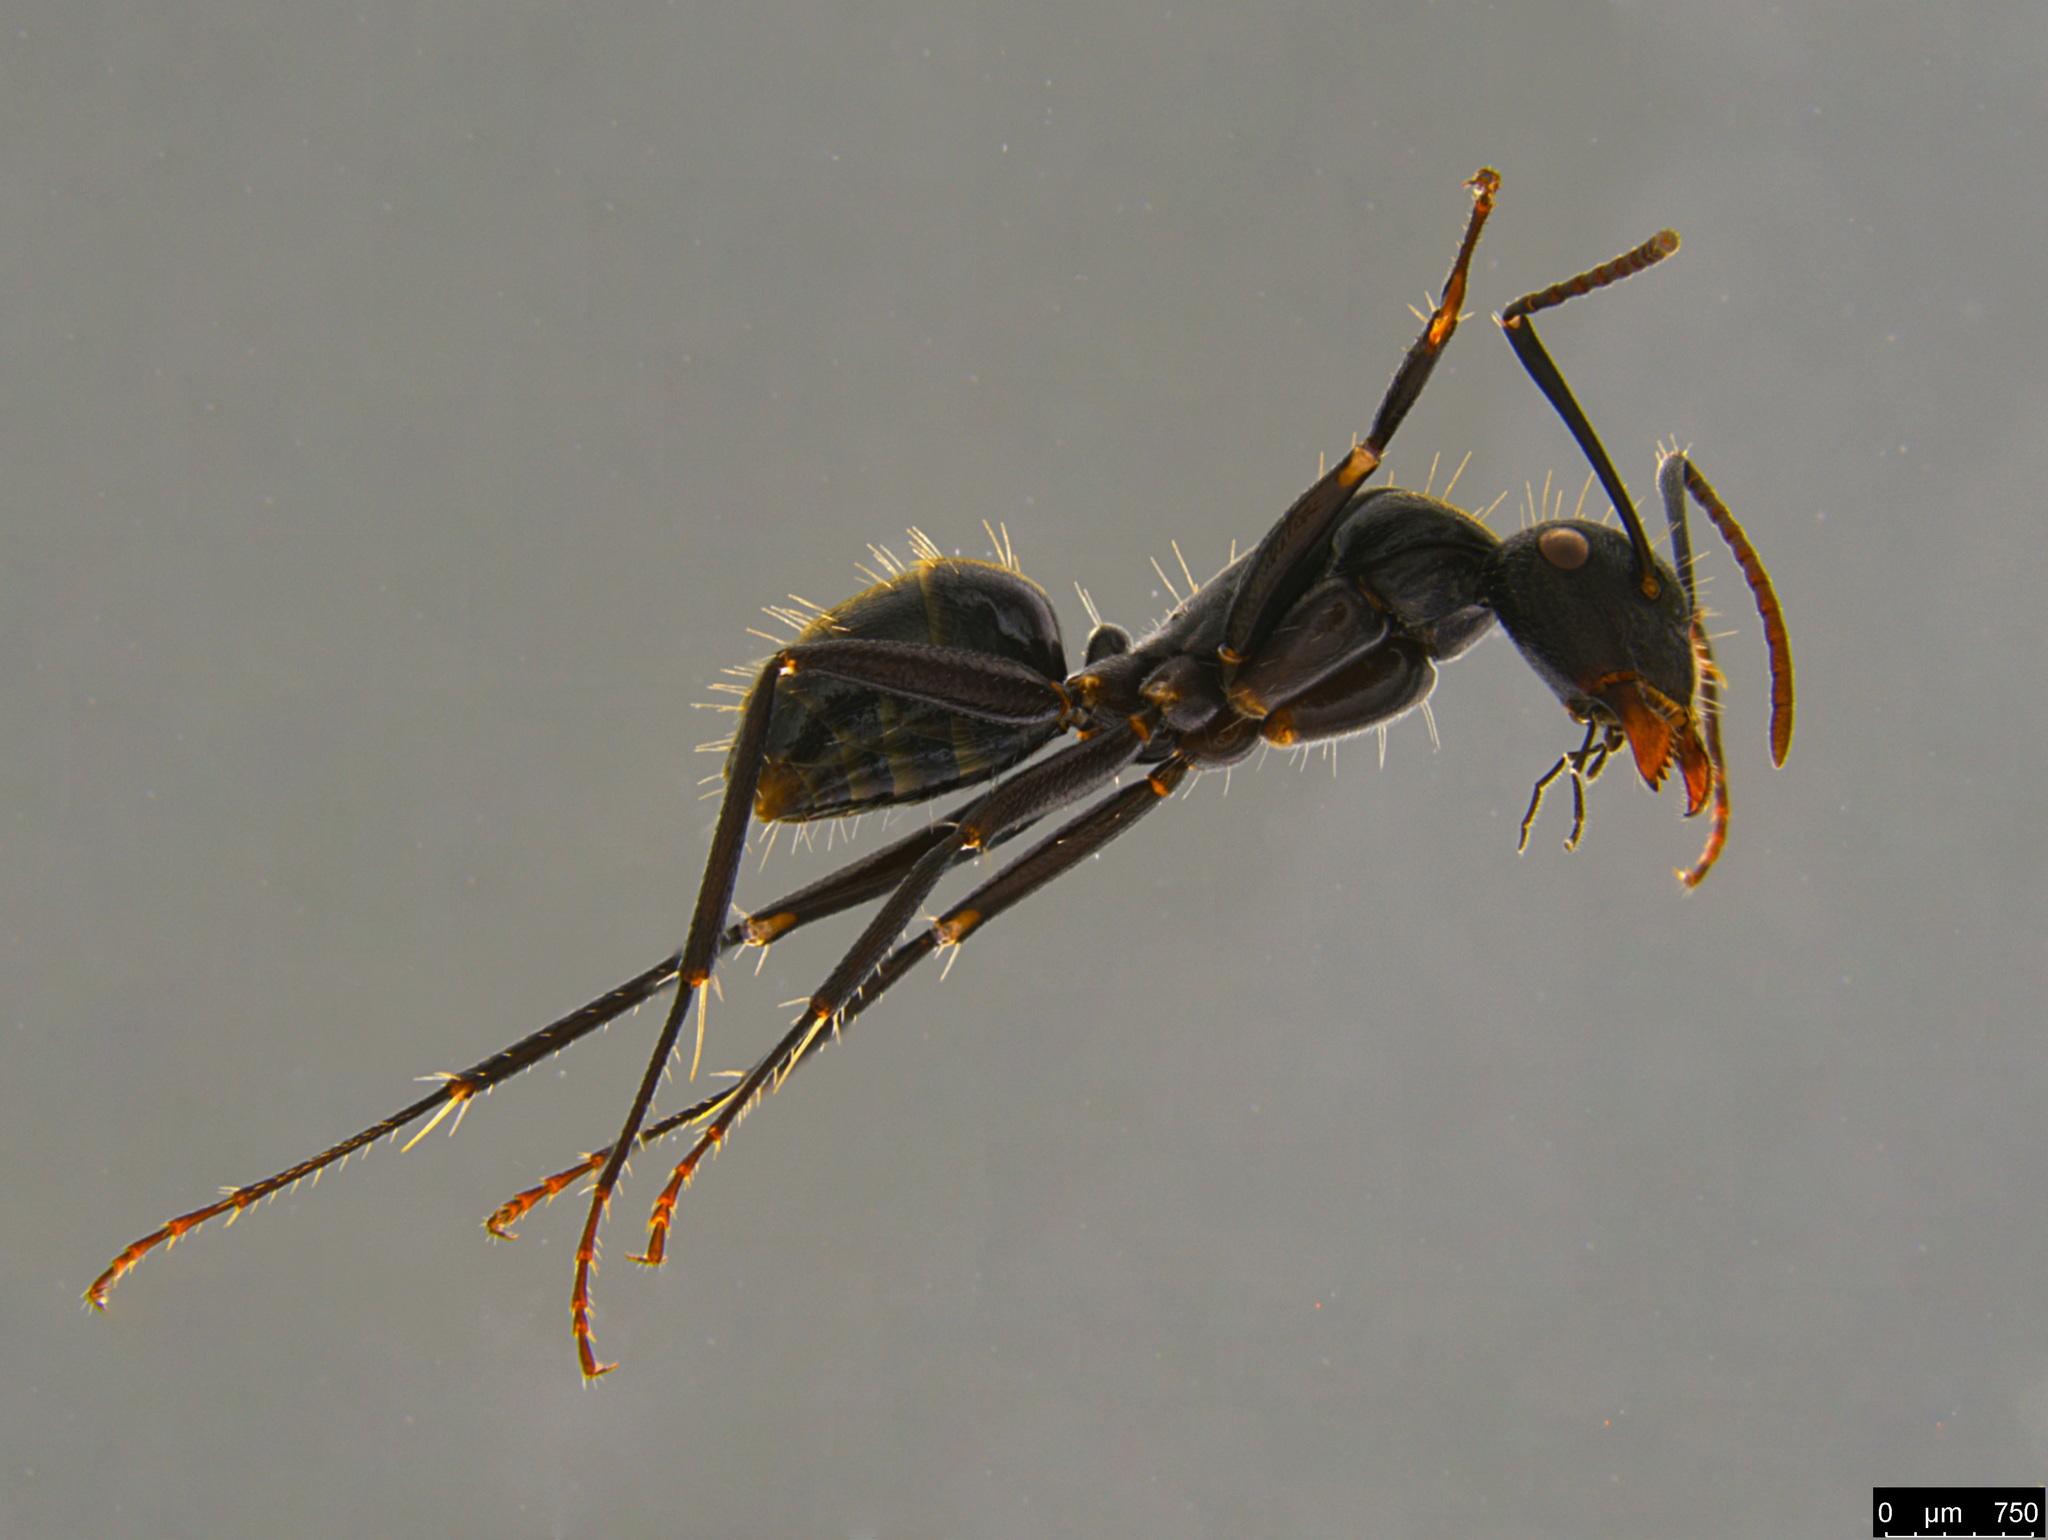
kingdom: Animalia
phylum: Arthropoda
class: Insecta
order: Hymenoptera
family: Formicidae
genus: Camponotus
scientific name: Camponotus aeneopilosus
